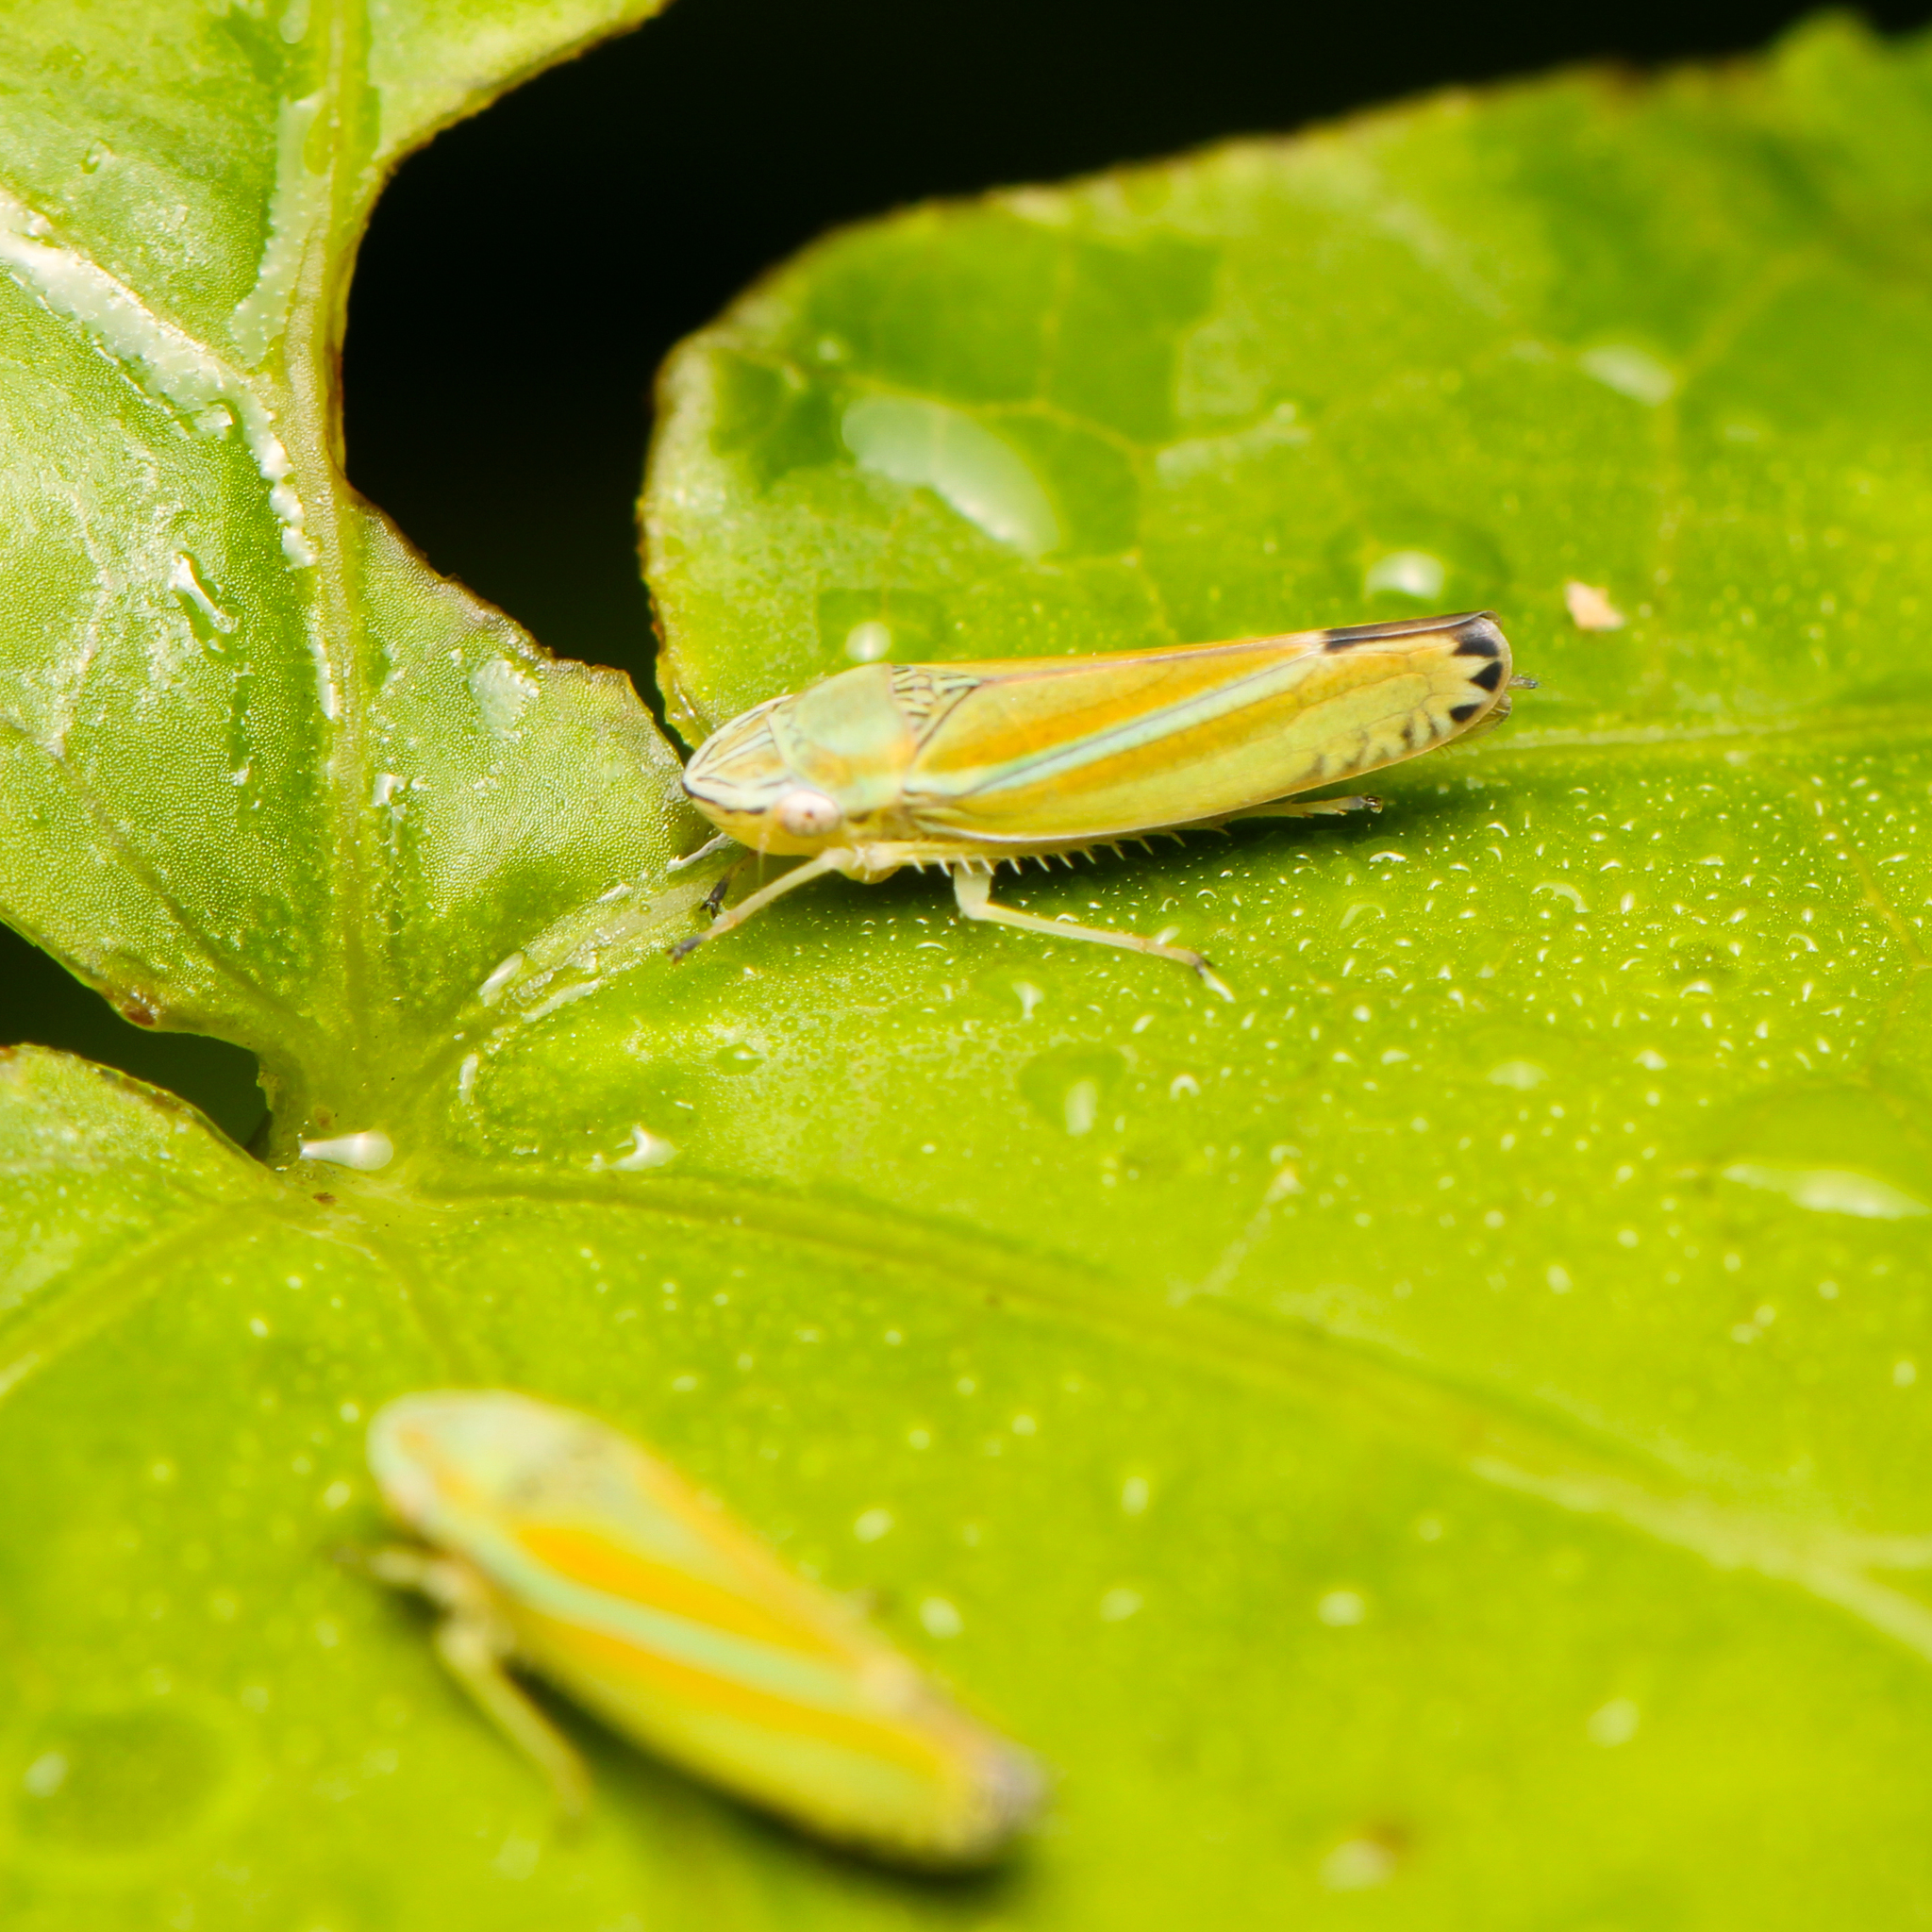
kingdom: Animalia
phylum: Arthropoda
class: Insecta
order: Hemiptera
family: Cicadellidae
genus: Graphocephala
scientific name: Graphocephala versuta
